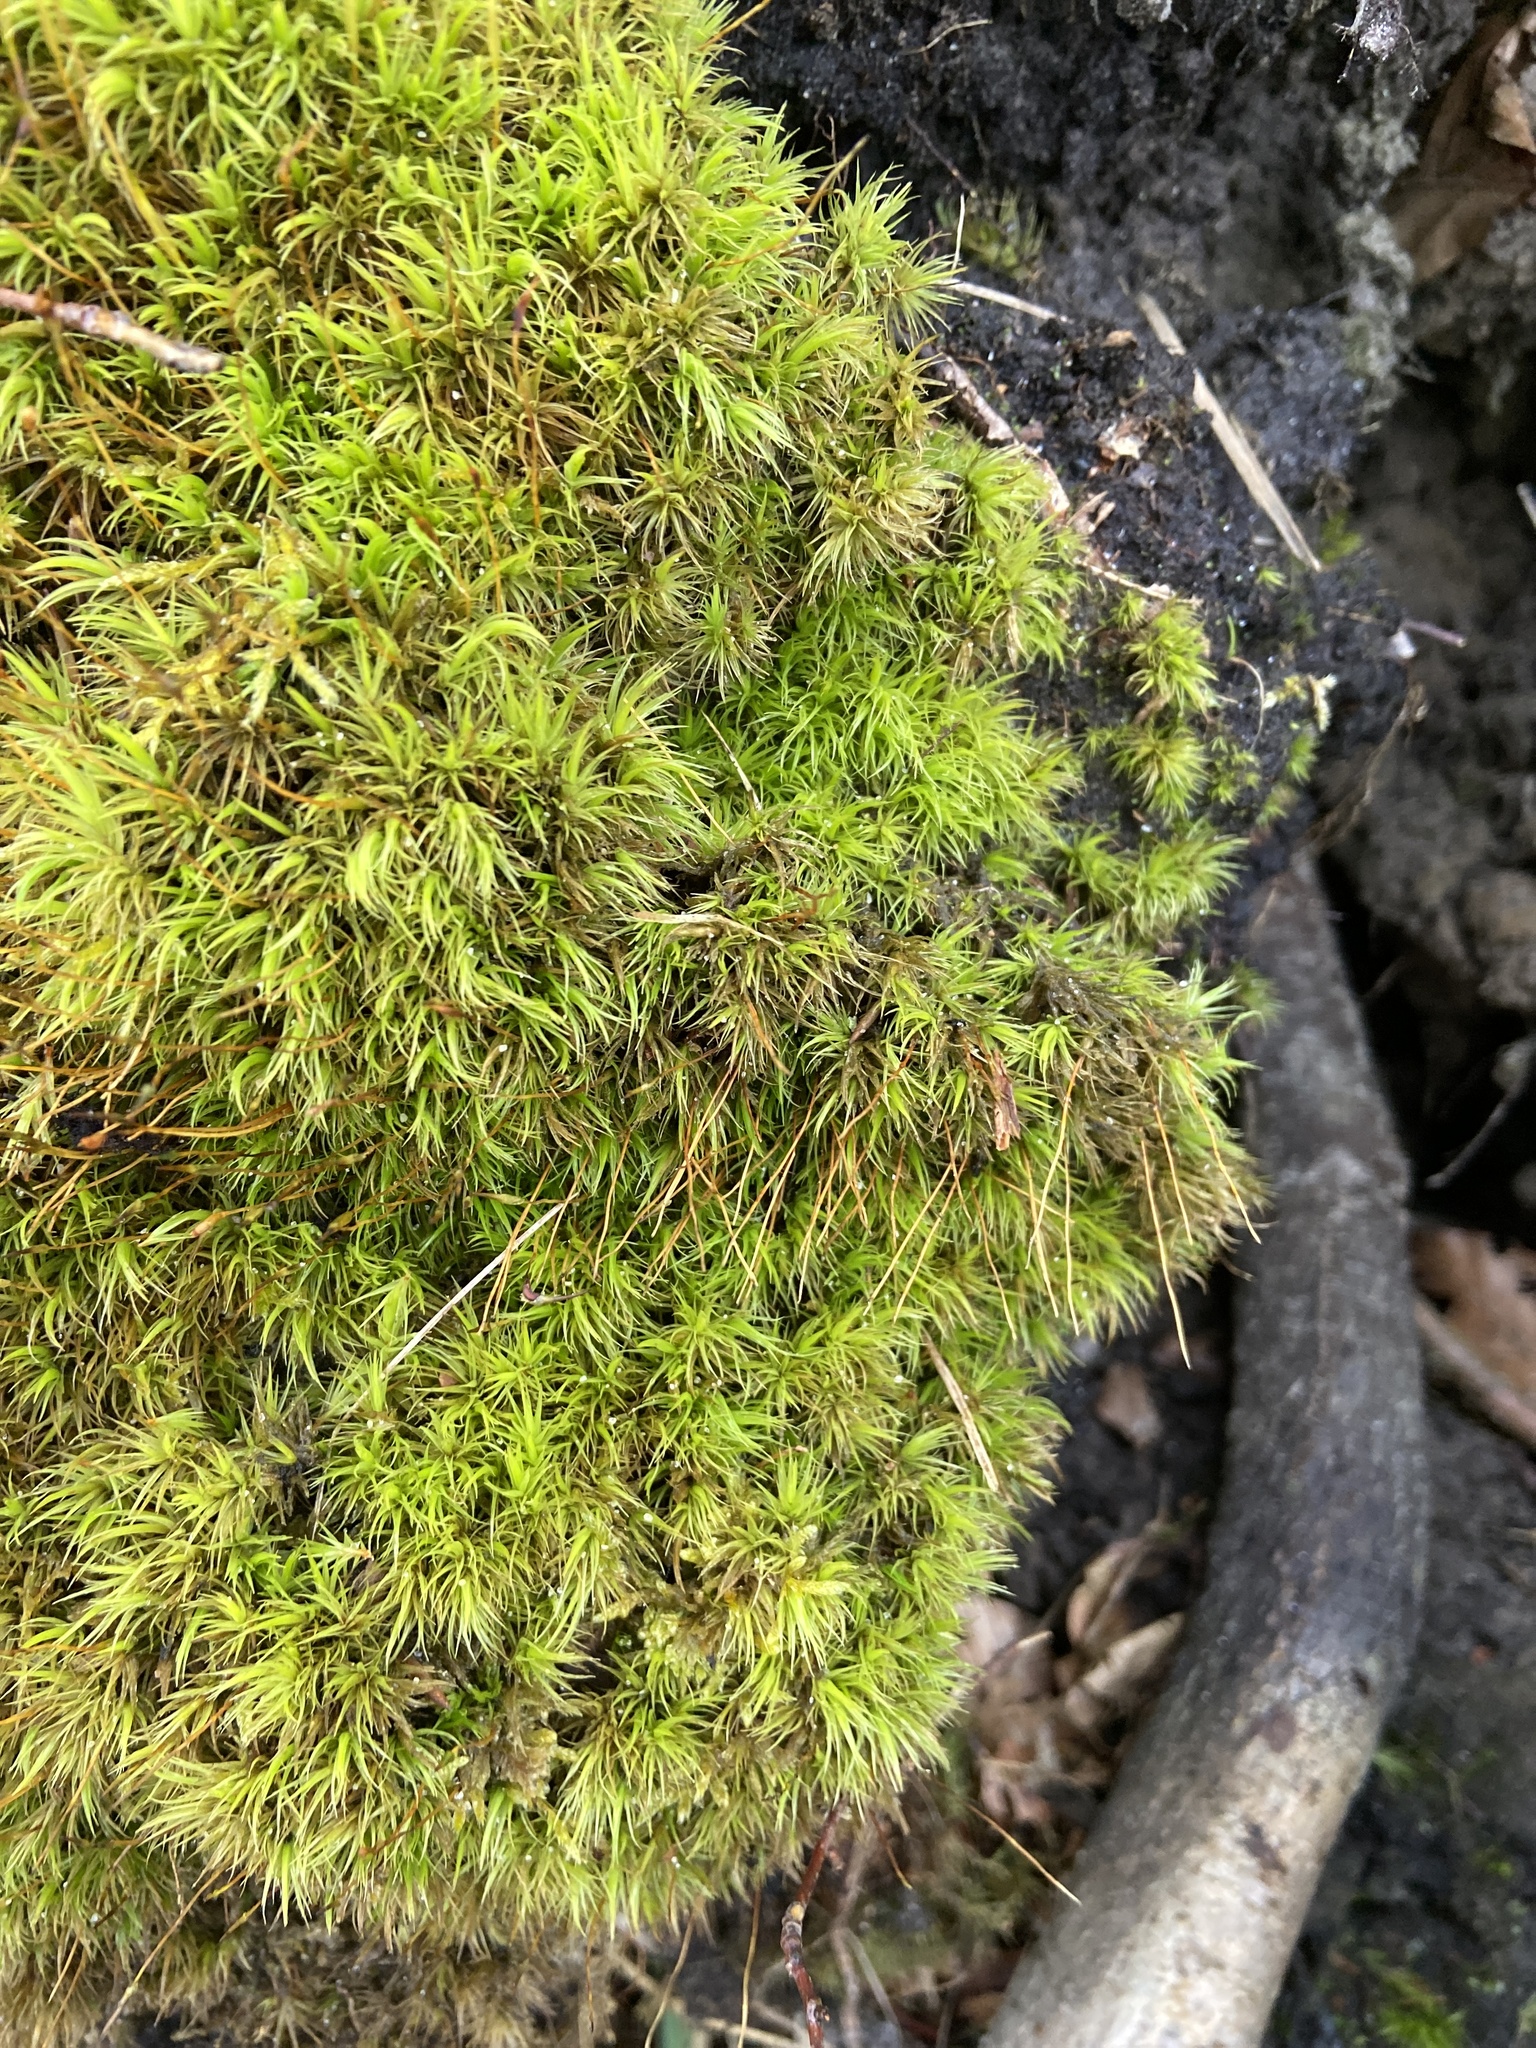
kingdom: Plantae
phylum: Bryophyta
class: Bryopsida
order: Dicranales
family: Dicranaceae
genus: Dicranum
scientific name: Dicranum scoparium
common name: Broom fork-moss
